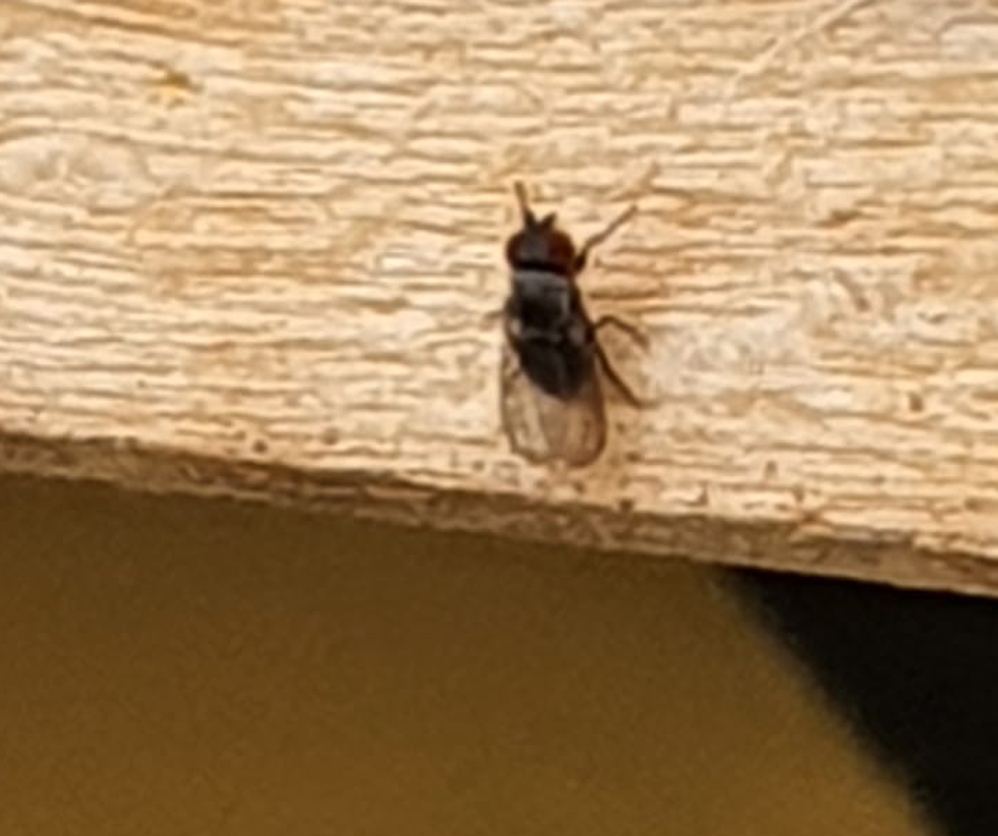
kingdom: Animalia
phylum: Arthropoda
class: Insecta
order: Diptera
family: Drosophilidae
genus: Cacoxenus
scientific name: Cacoxenus indagator
